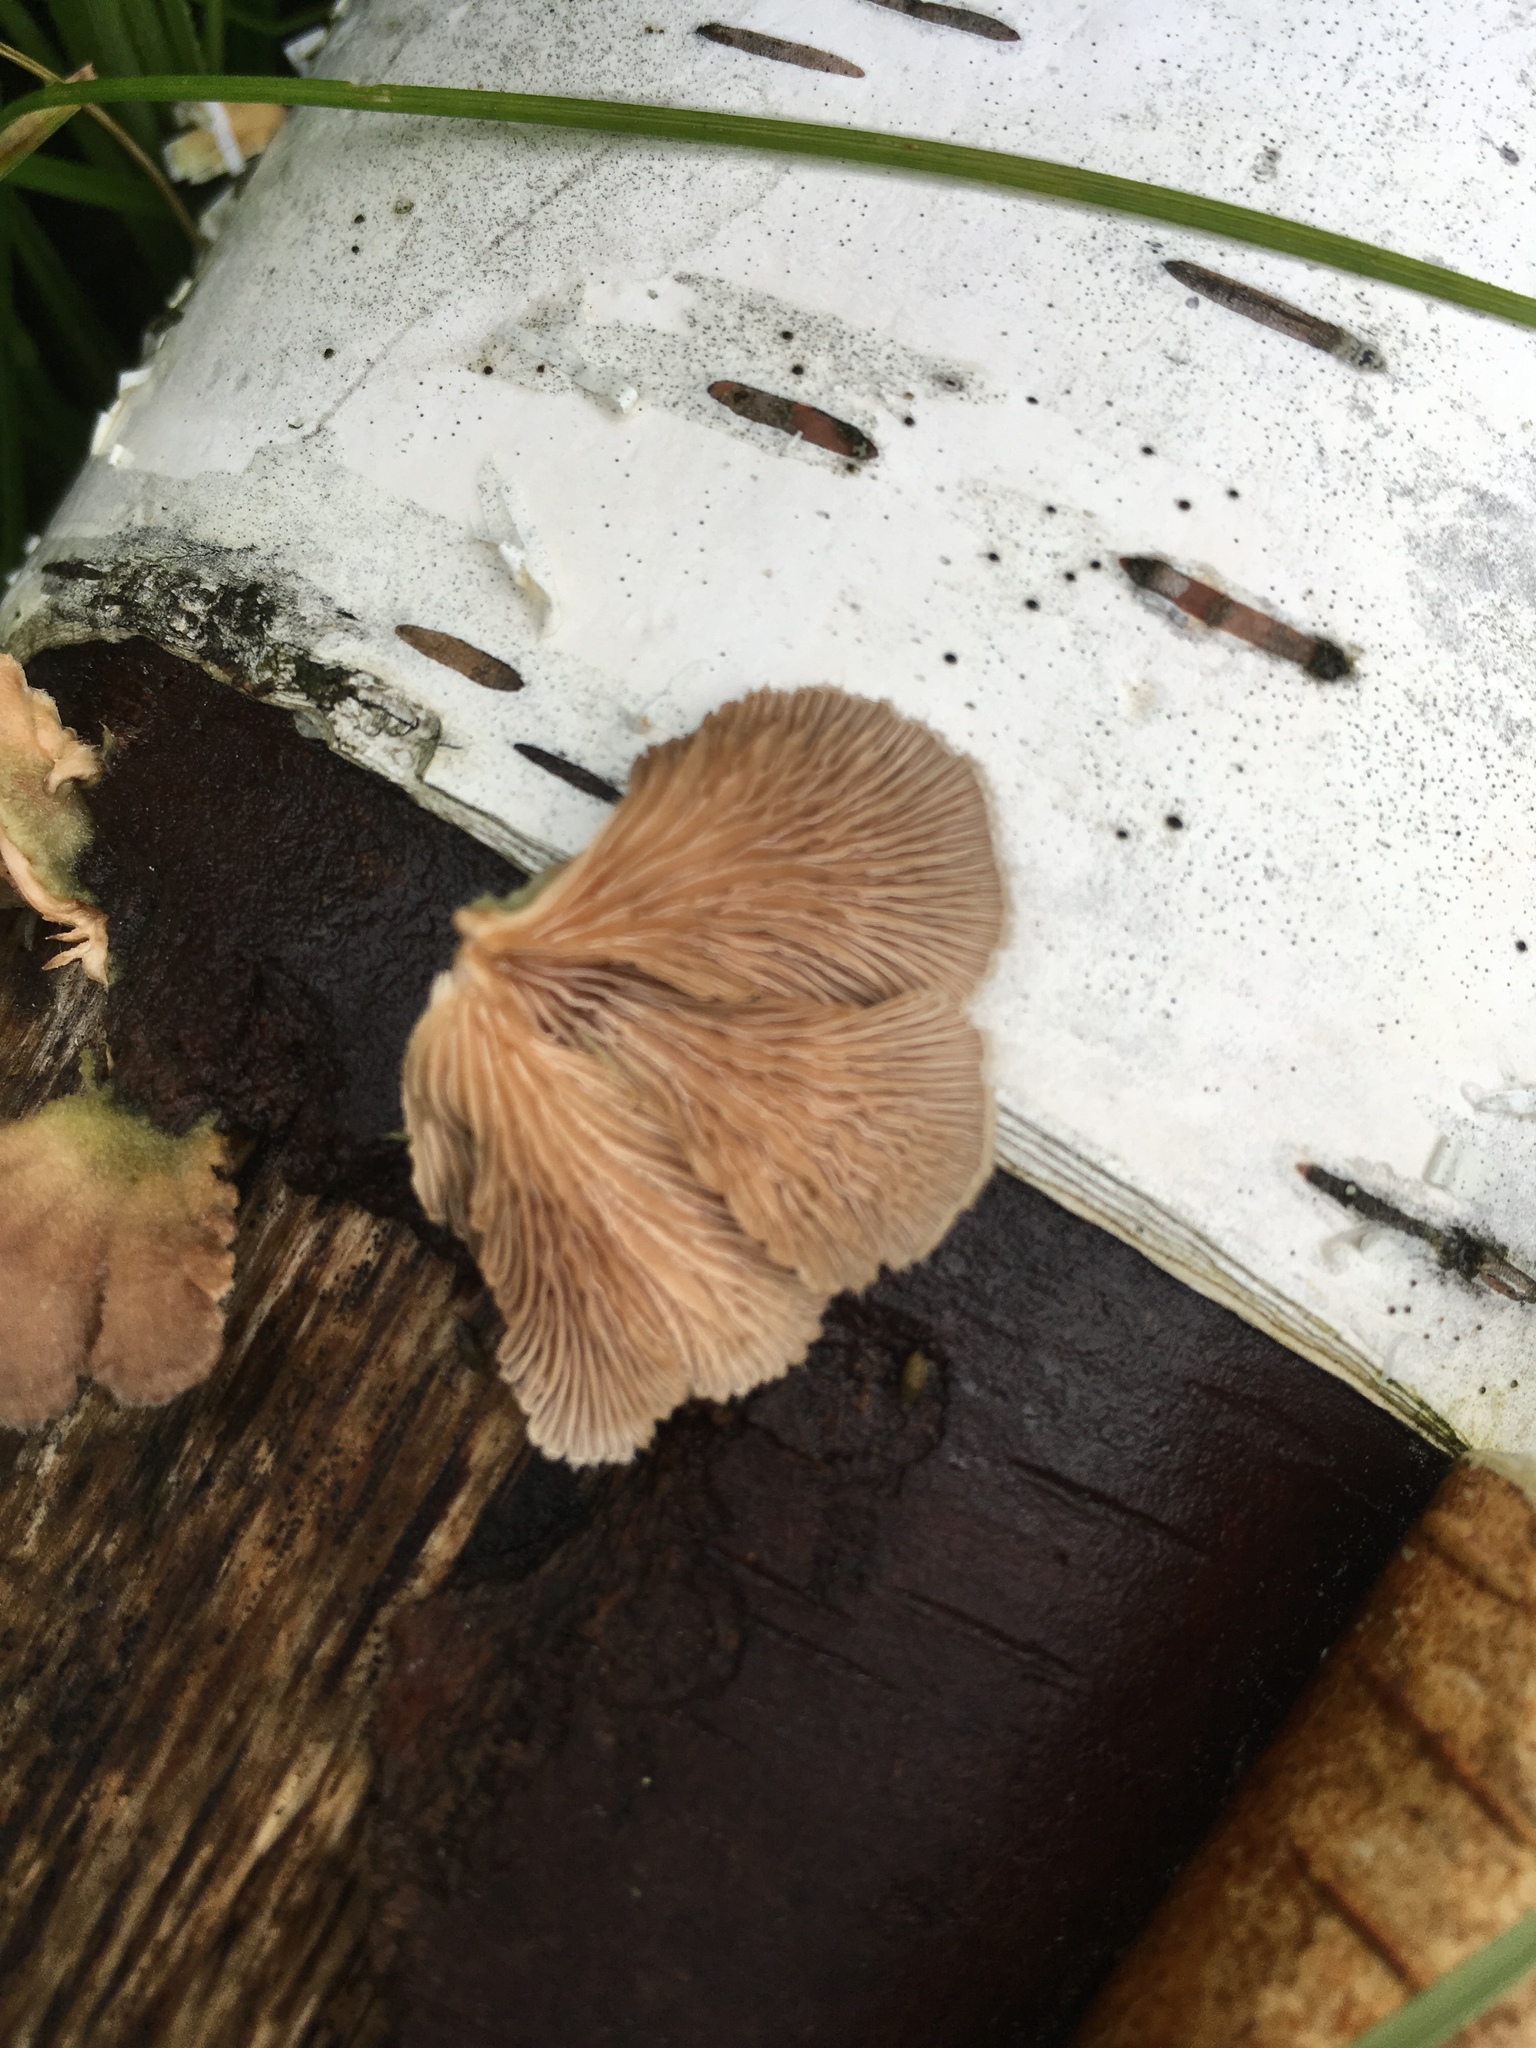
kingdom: Fungi
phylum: Basidiomycota
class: Agaricomycetes
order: Agaricales
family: Schizophyllaceae
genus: Schizophyllum
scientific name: Schizophyllum commune
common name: Common porecrust
